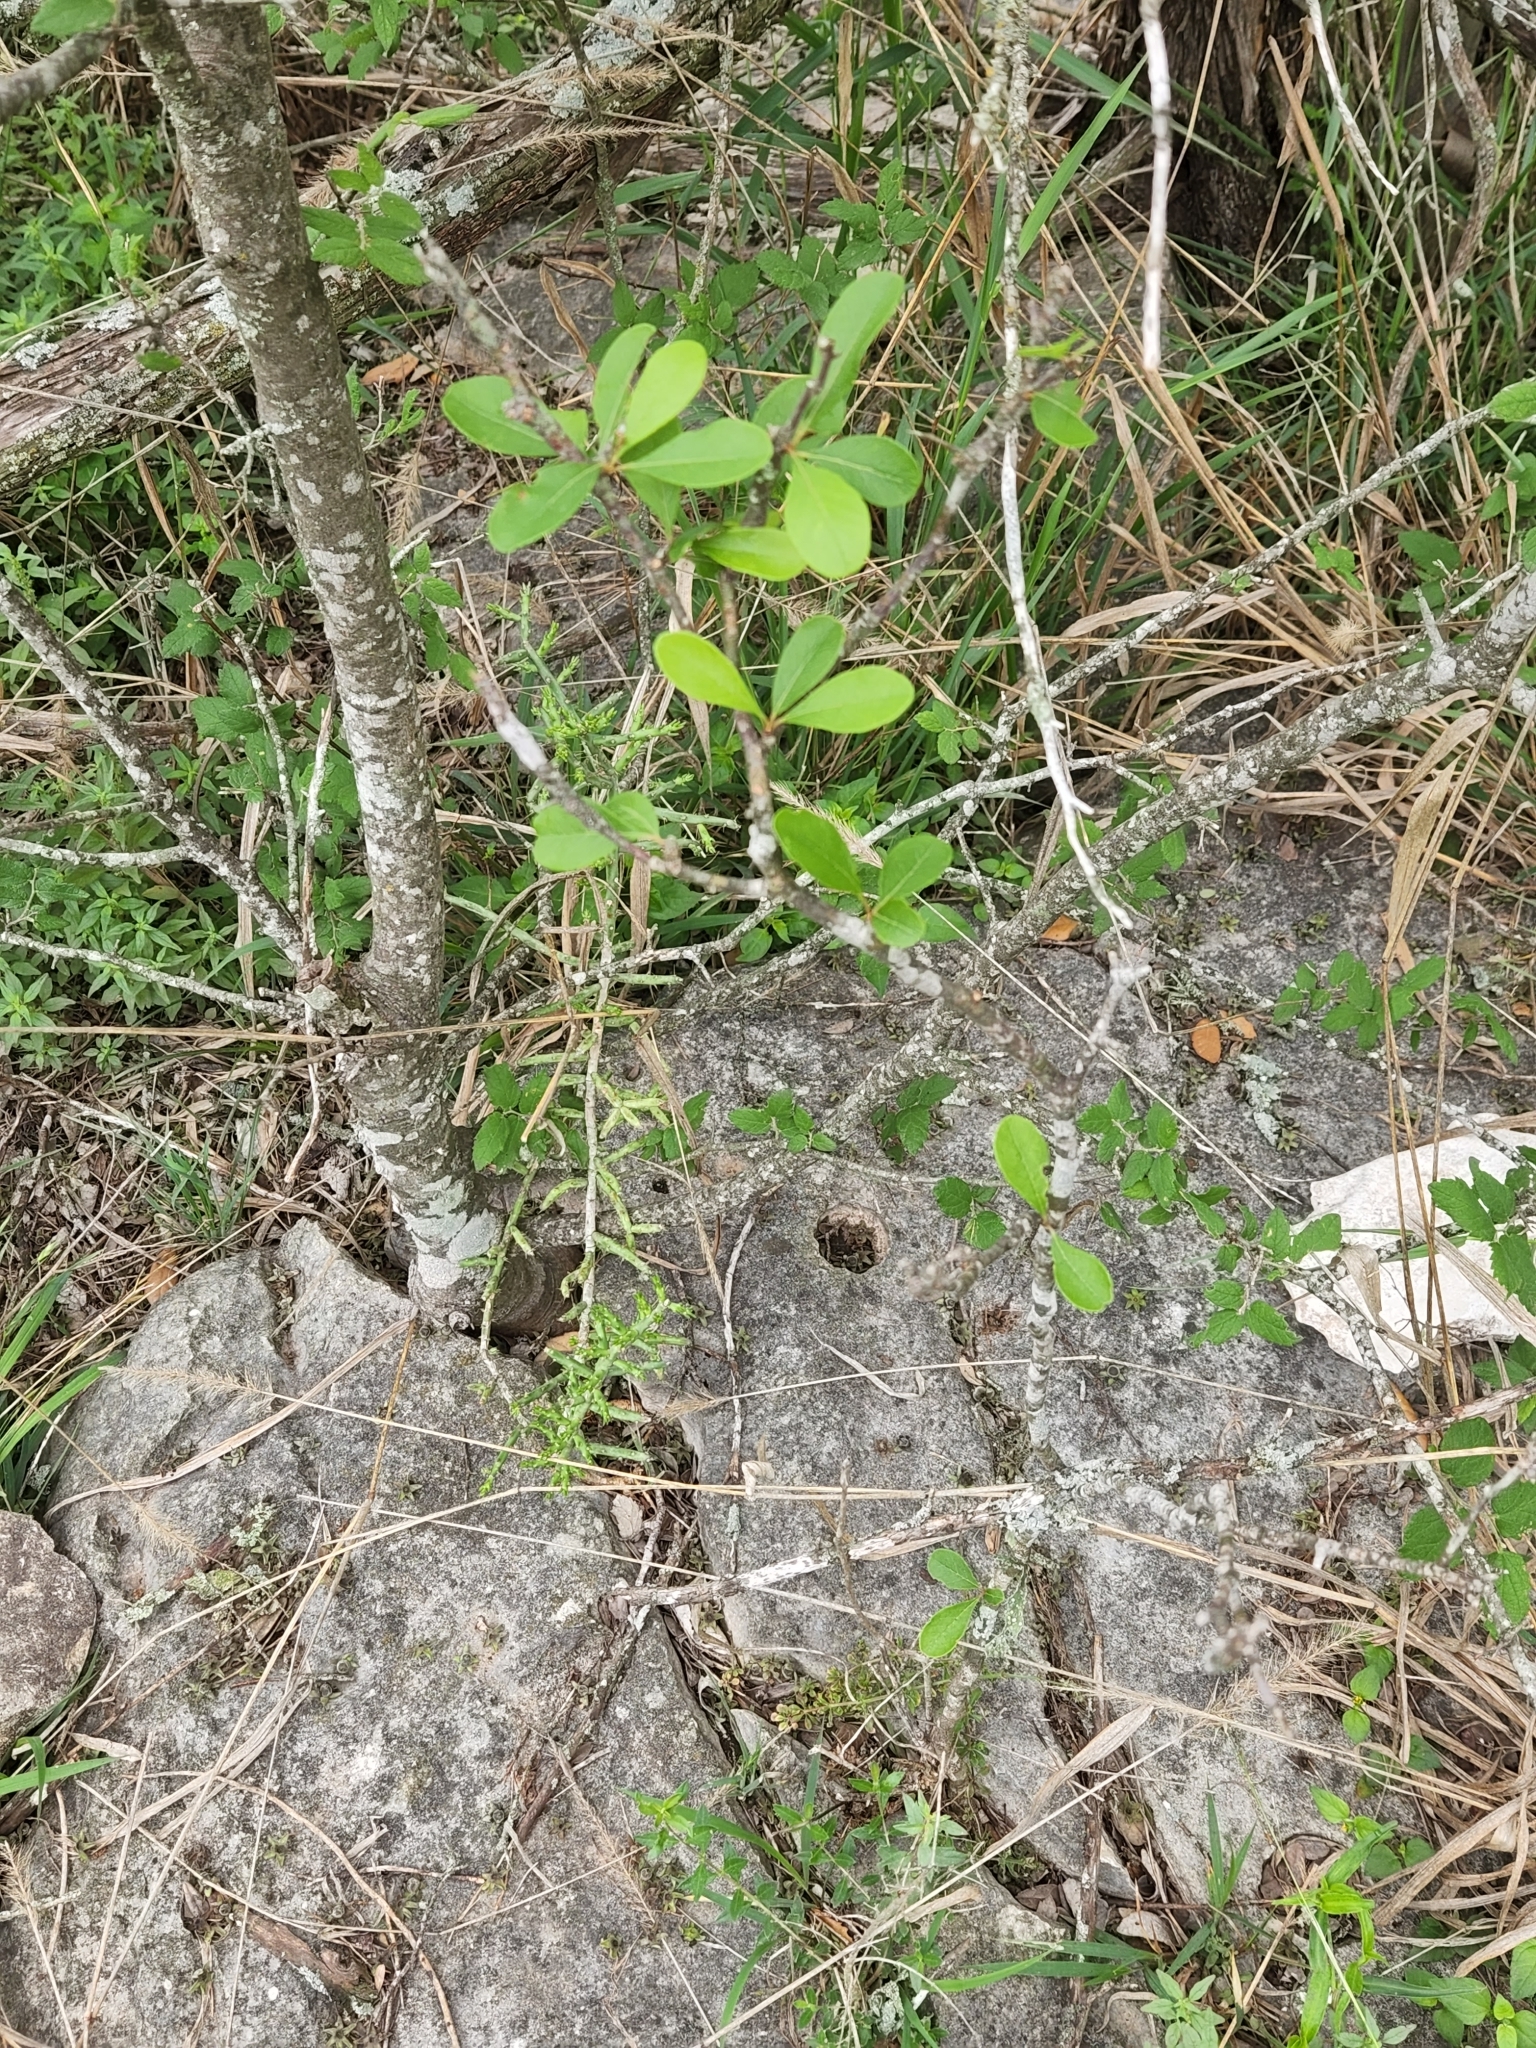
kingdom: Plantae
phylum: Tracheophyta
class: Magnoliopsida
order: Ericales
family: Sapotaceae
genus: Sideroxylon
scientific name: Sideroxylon lanuginosum
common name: Chittamwood
